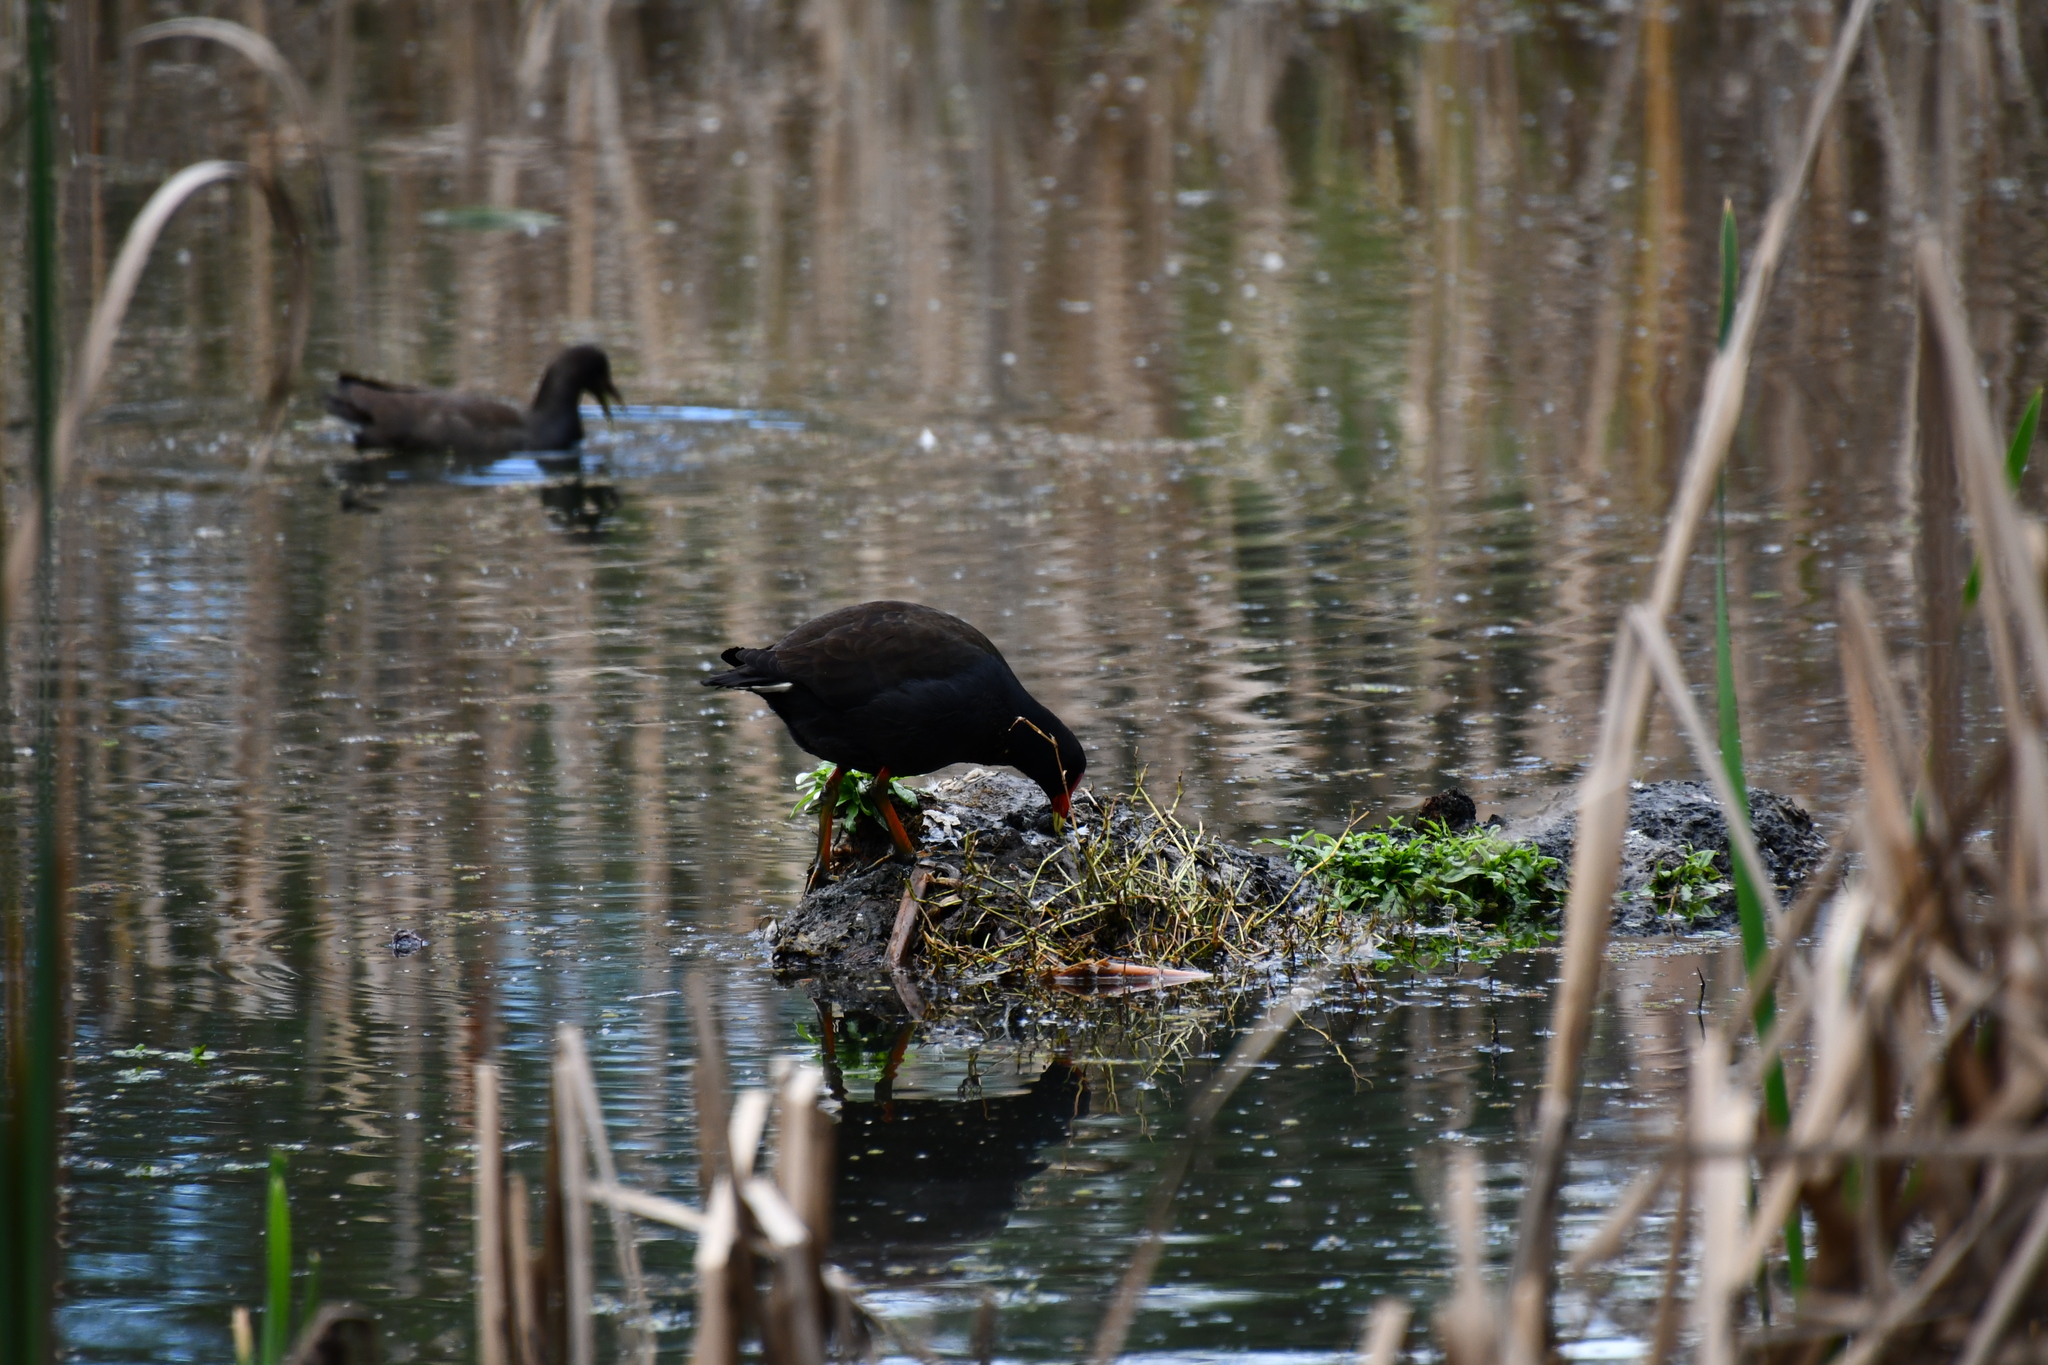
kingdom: Animalia
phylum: Chordata
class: Aves
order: Gruiformes
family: Rallidae
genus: Gallinula
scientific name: Gallinula tenebrosa
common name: Dusky moorhen
